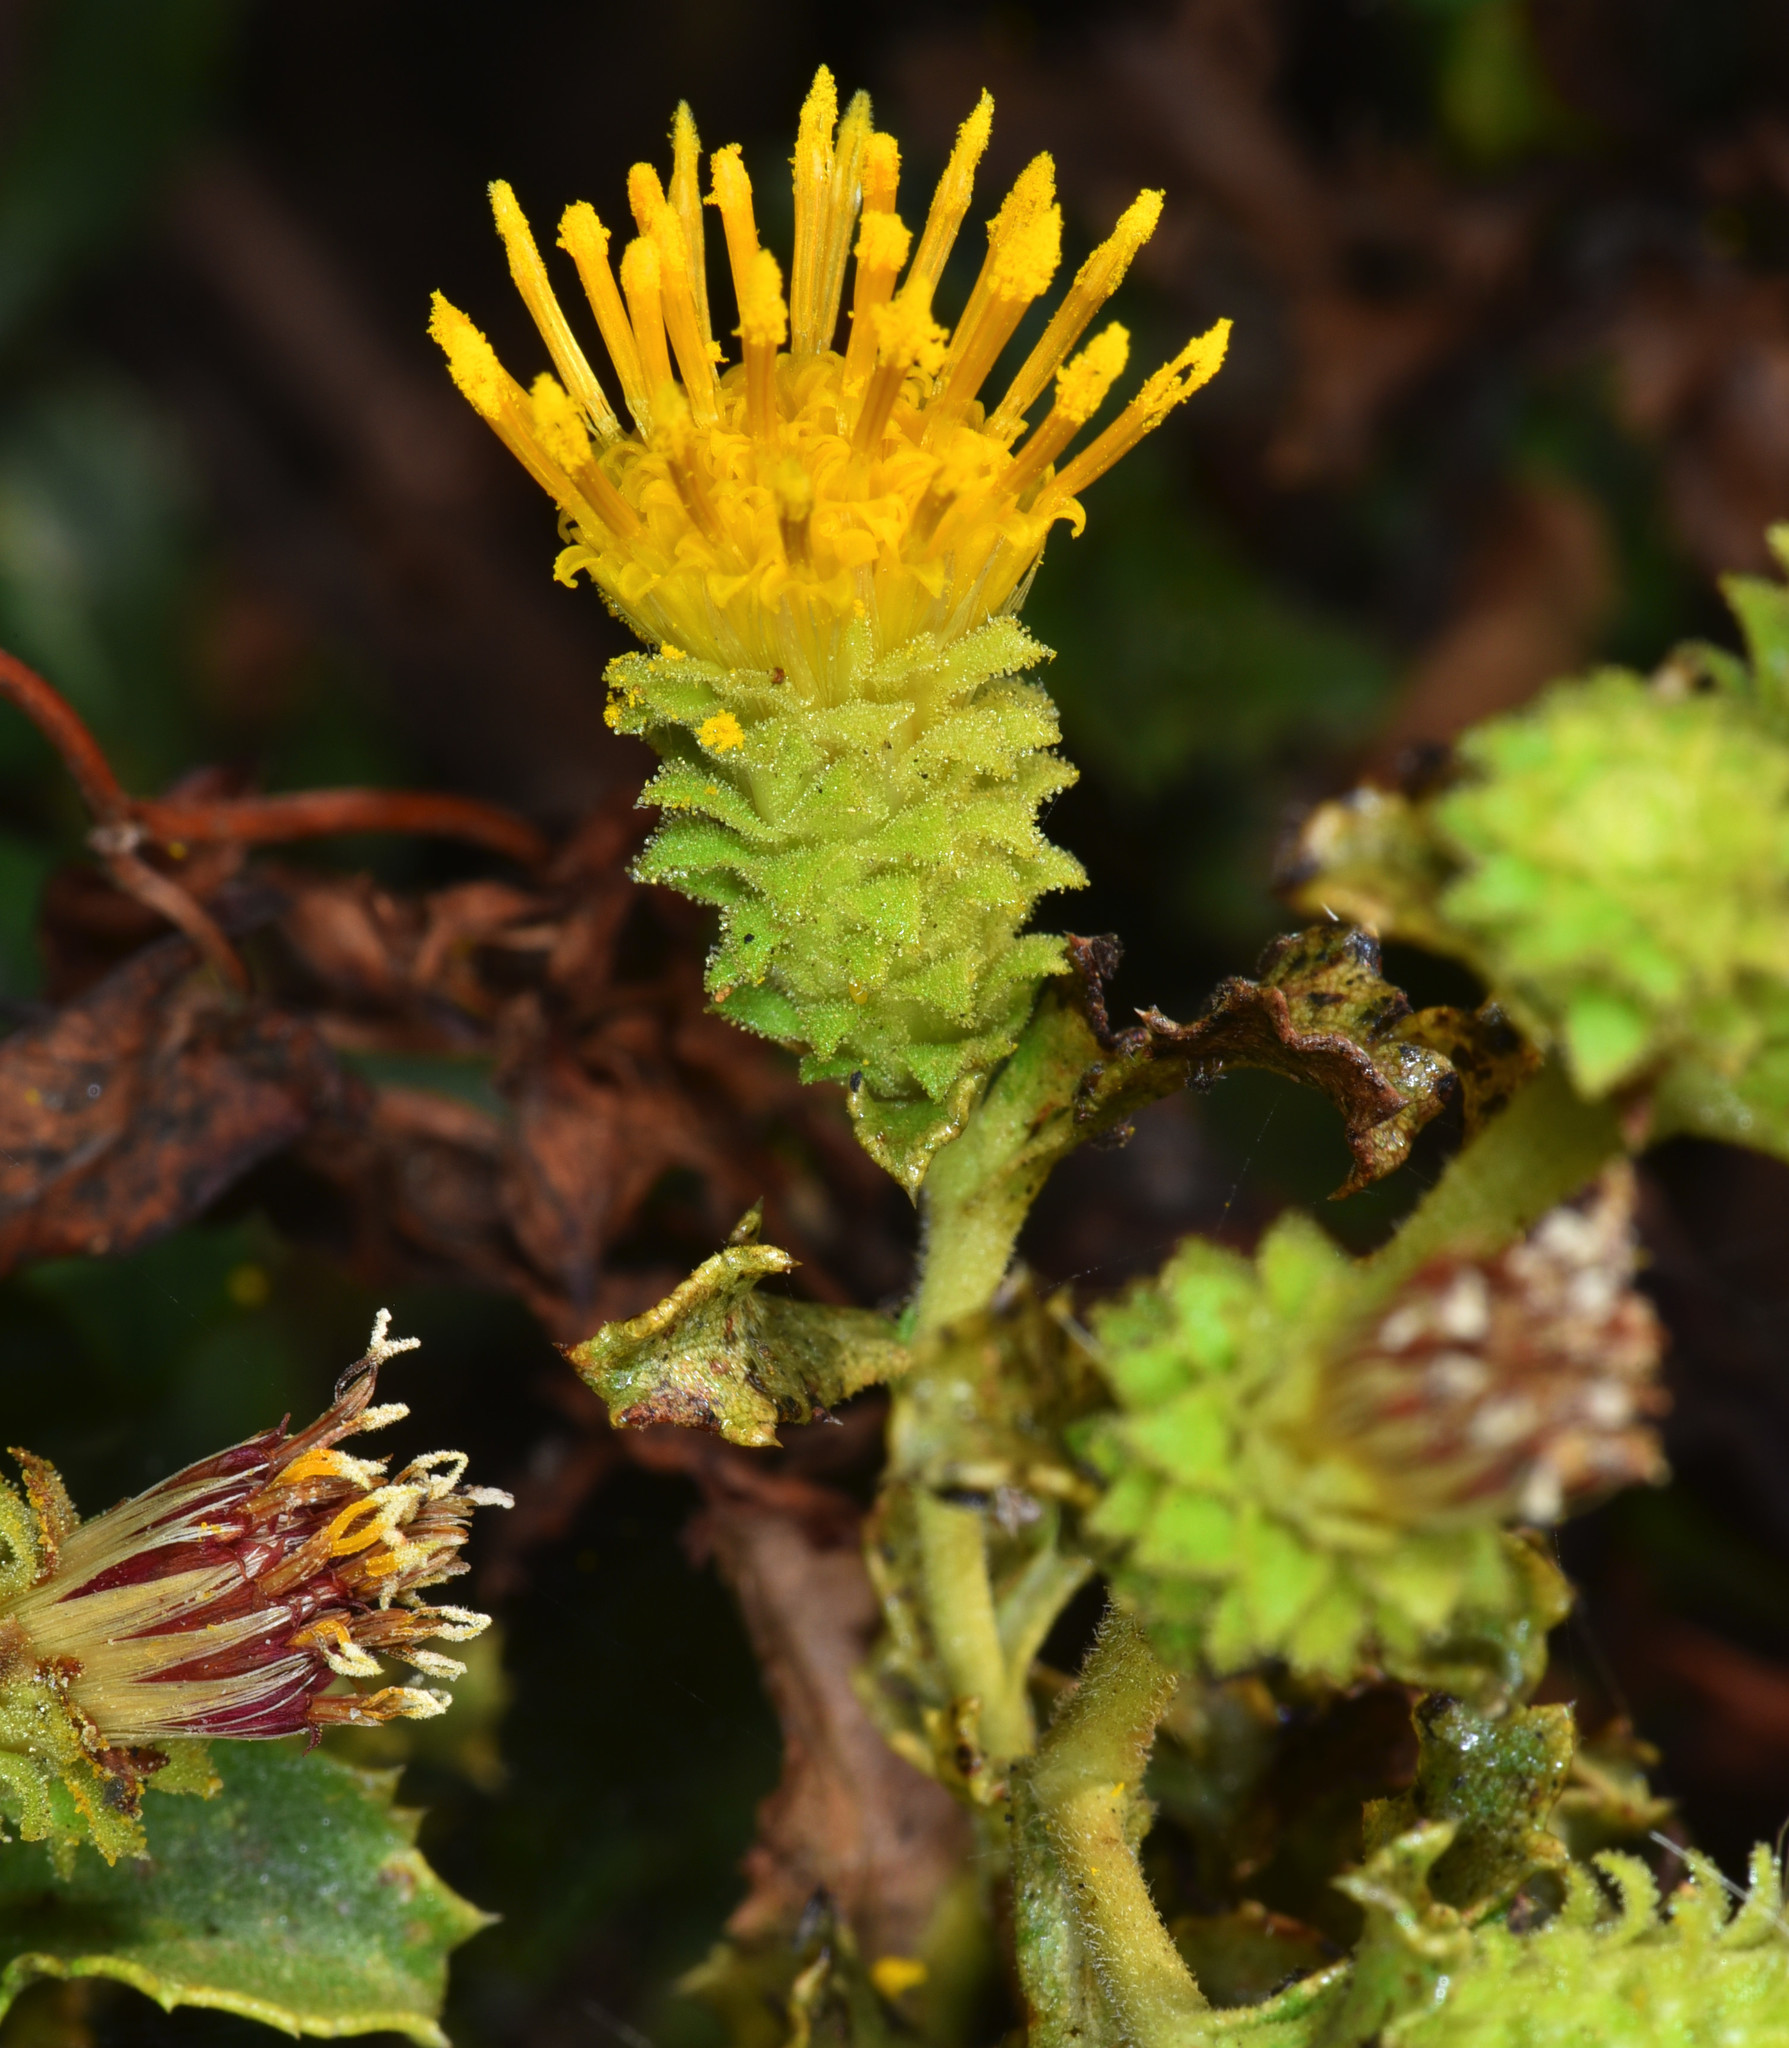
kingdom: Plantae
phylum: Tracheophyta
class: Magnoliopsida
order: Asterales
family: Asteraceae
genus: Hazardia
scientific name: Hazardia squarrosa
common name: Saw-tooth goldenbush
